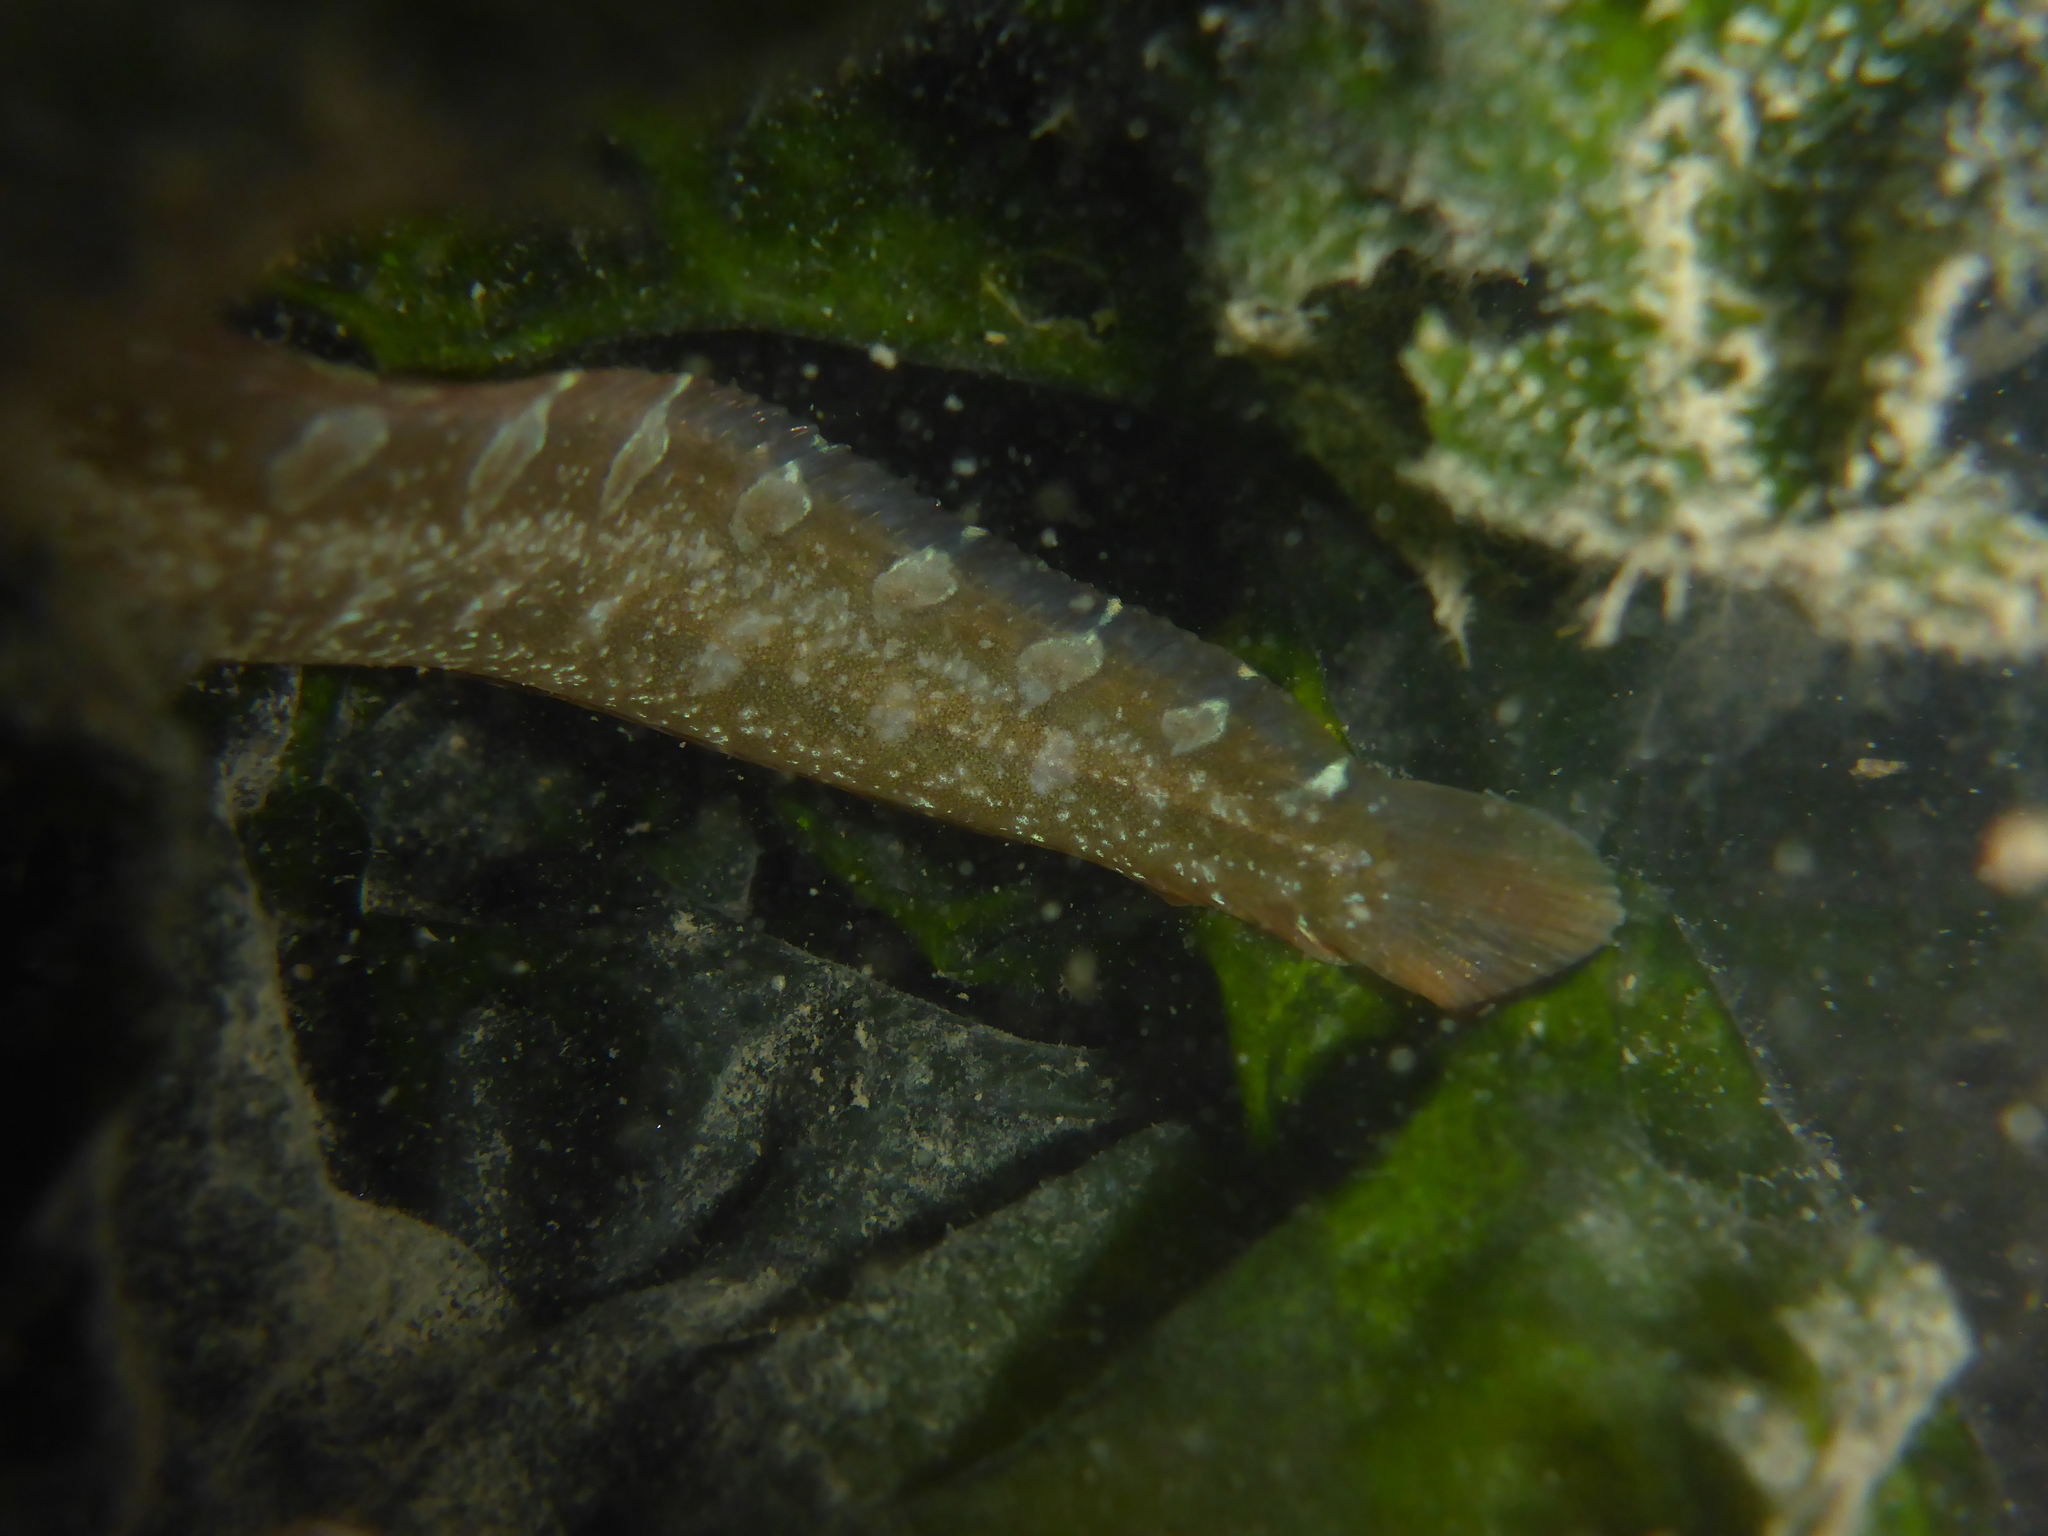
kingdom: Animalia
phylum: Chordata
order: Perciformes
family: Pholidae
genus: Pholis
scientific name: Pholis laeta
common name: Crescent gunnel
